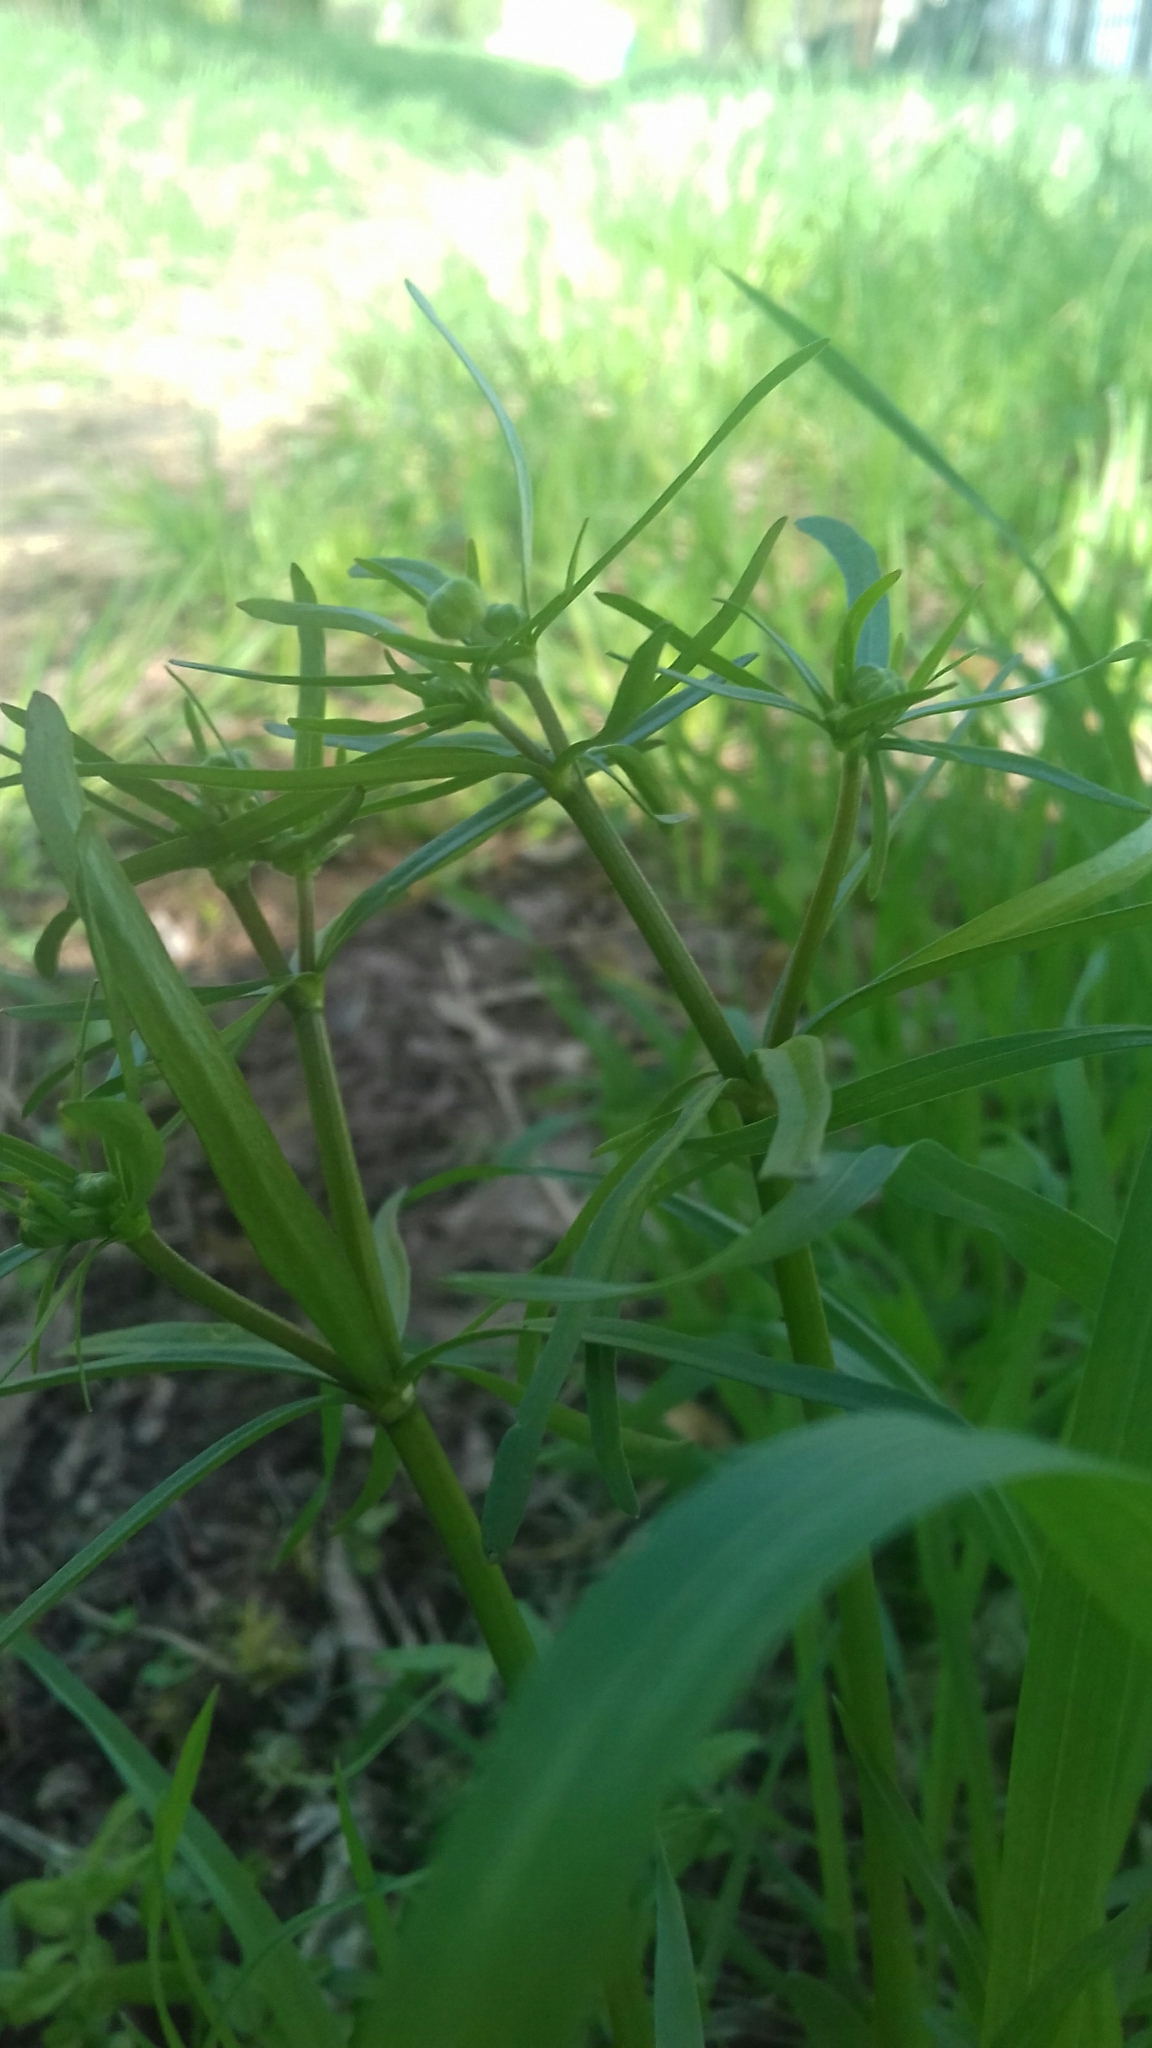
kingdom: Plantae
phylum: Tracheophyta
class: Magnoliopsida
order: Ranunculales
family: Ranunculaceae
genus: Ranunculus
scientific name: Ranunculus acris
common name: Meadow buttercup
